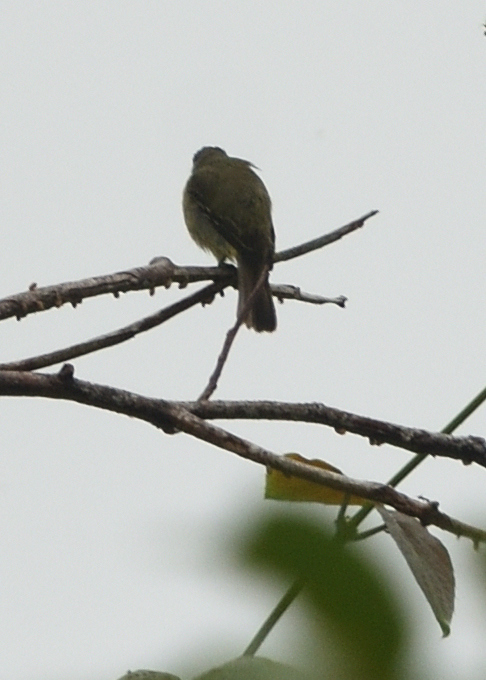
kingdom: Animalia
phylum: Chordata
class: Aves
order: Passeriformes
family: Tyrannidae
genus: Tyrannulus
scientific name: Tyrannulus elatus
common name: Yellow-crowned tyrannulet
